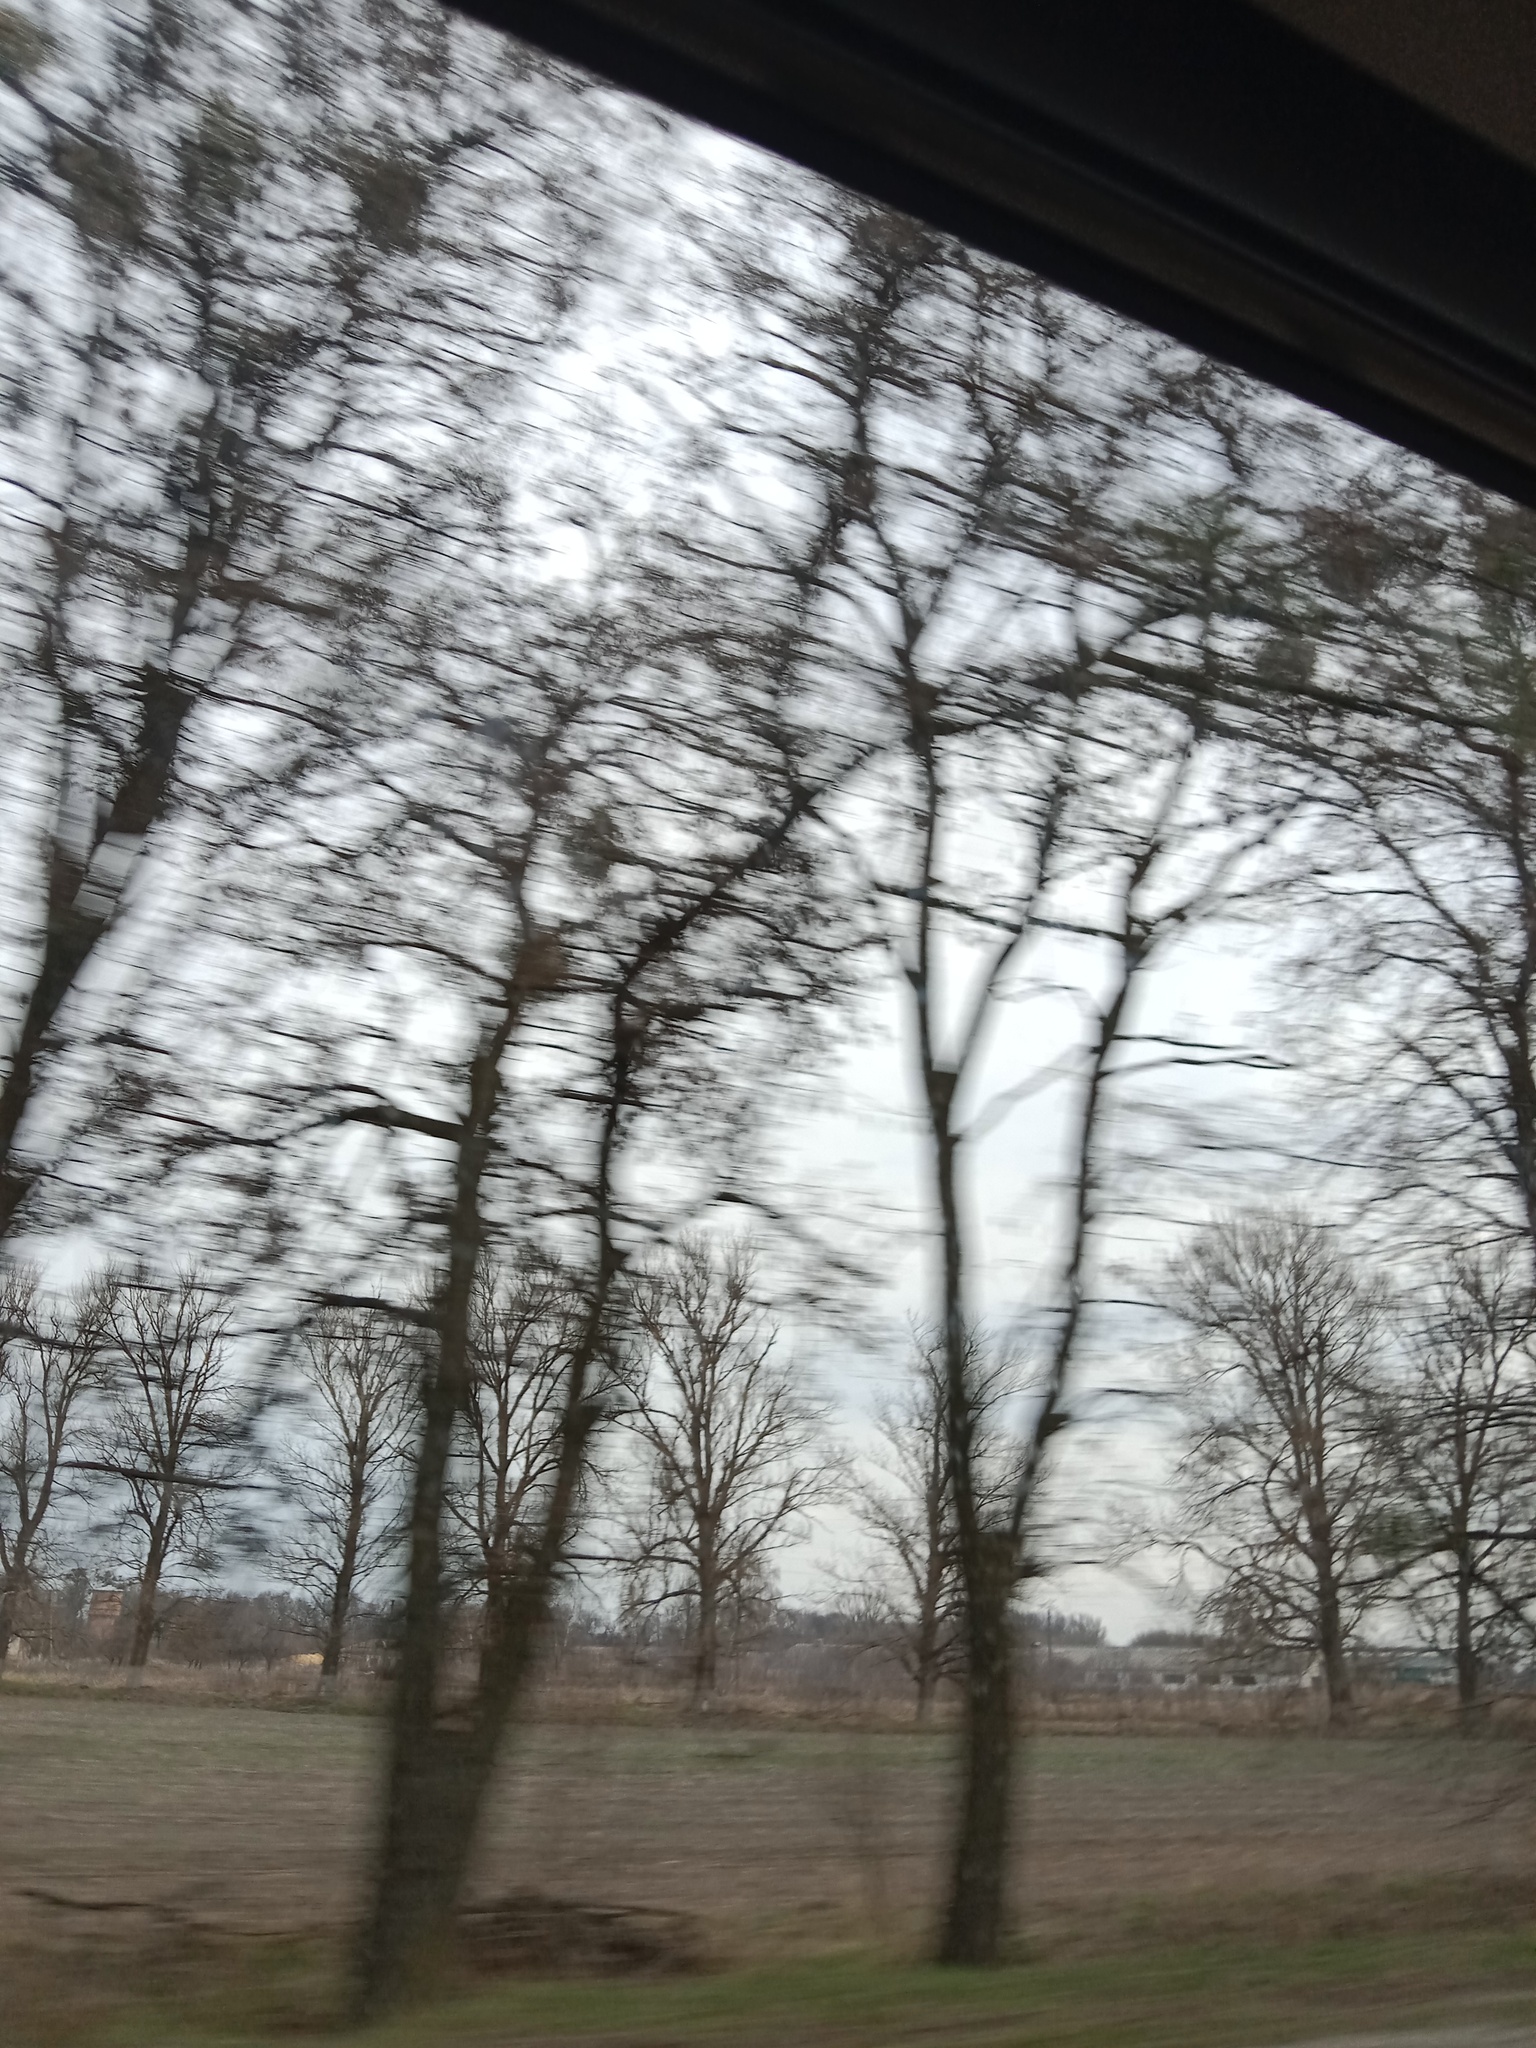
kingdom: Plantae
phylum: Tracheophyta
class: Magnoliopsida
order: Santalales
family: Viscaceae
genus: Viscum
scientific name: Viscum album
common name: Mistletoe
